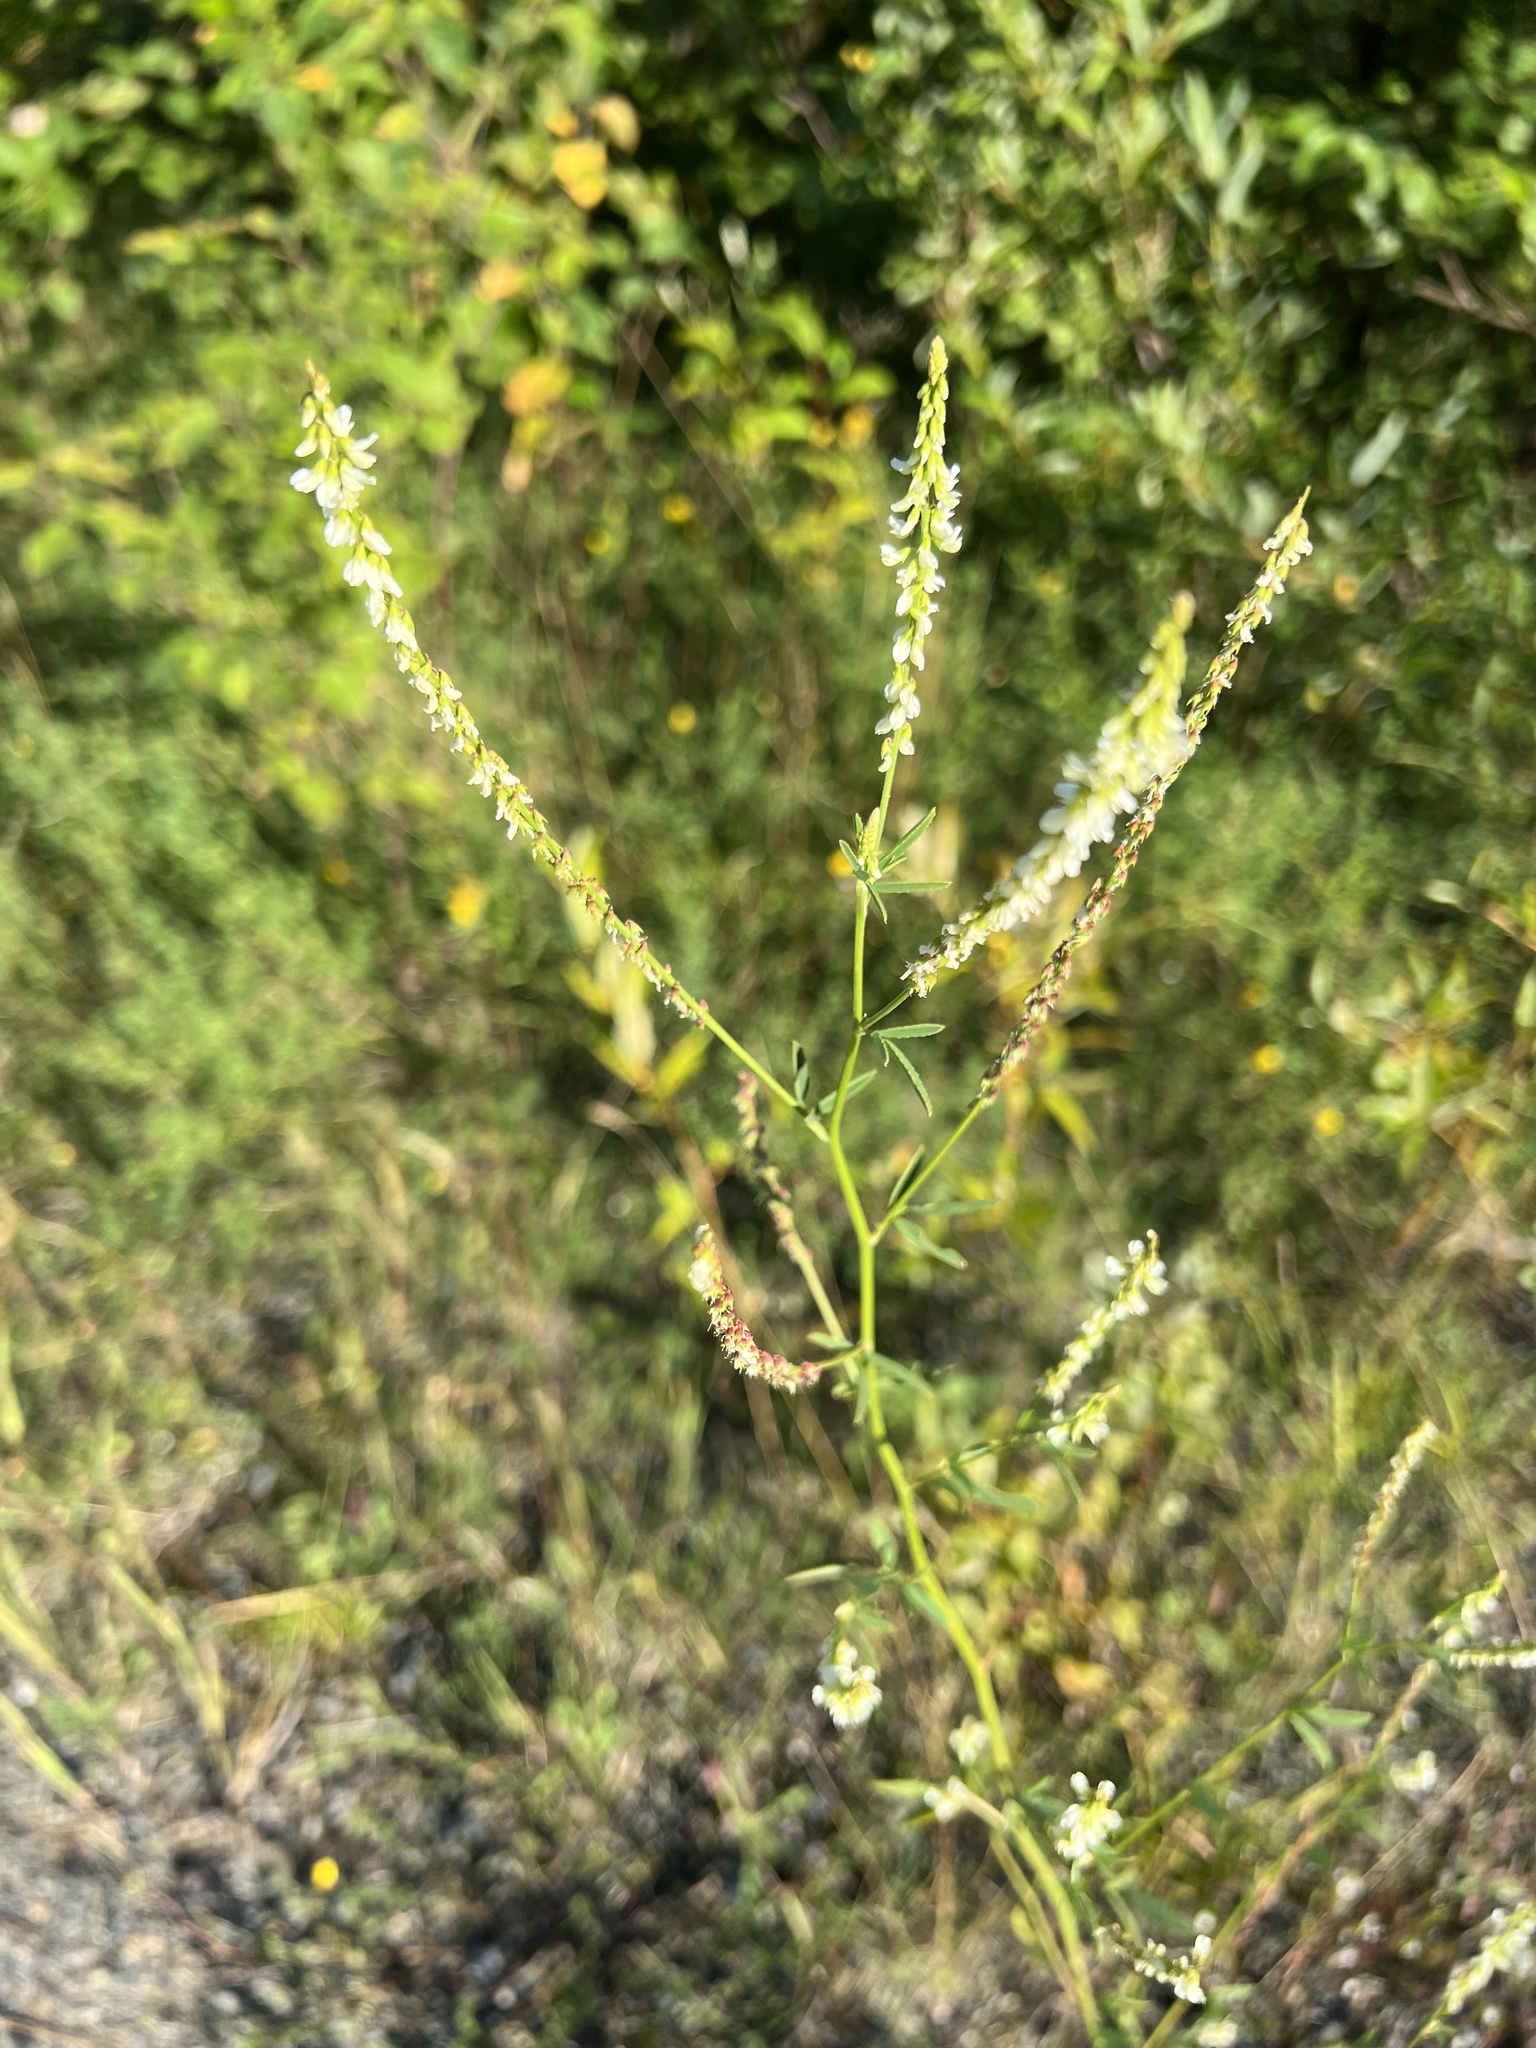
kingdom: Plantae
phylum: Tracheophyta
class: Magnoliopsida
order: Fabales
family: Fabaceae
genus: Melilotus
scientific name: Melilotus albus
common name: White melilot
